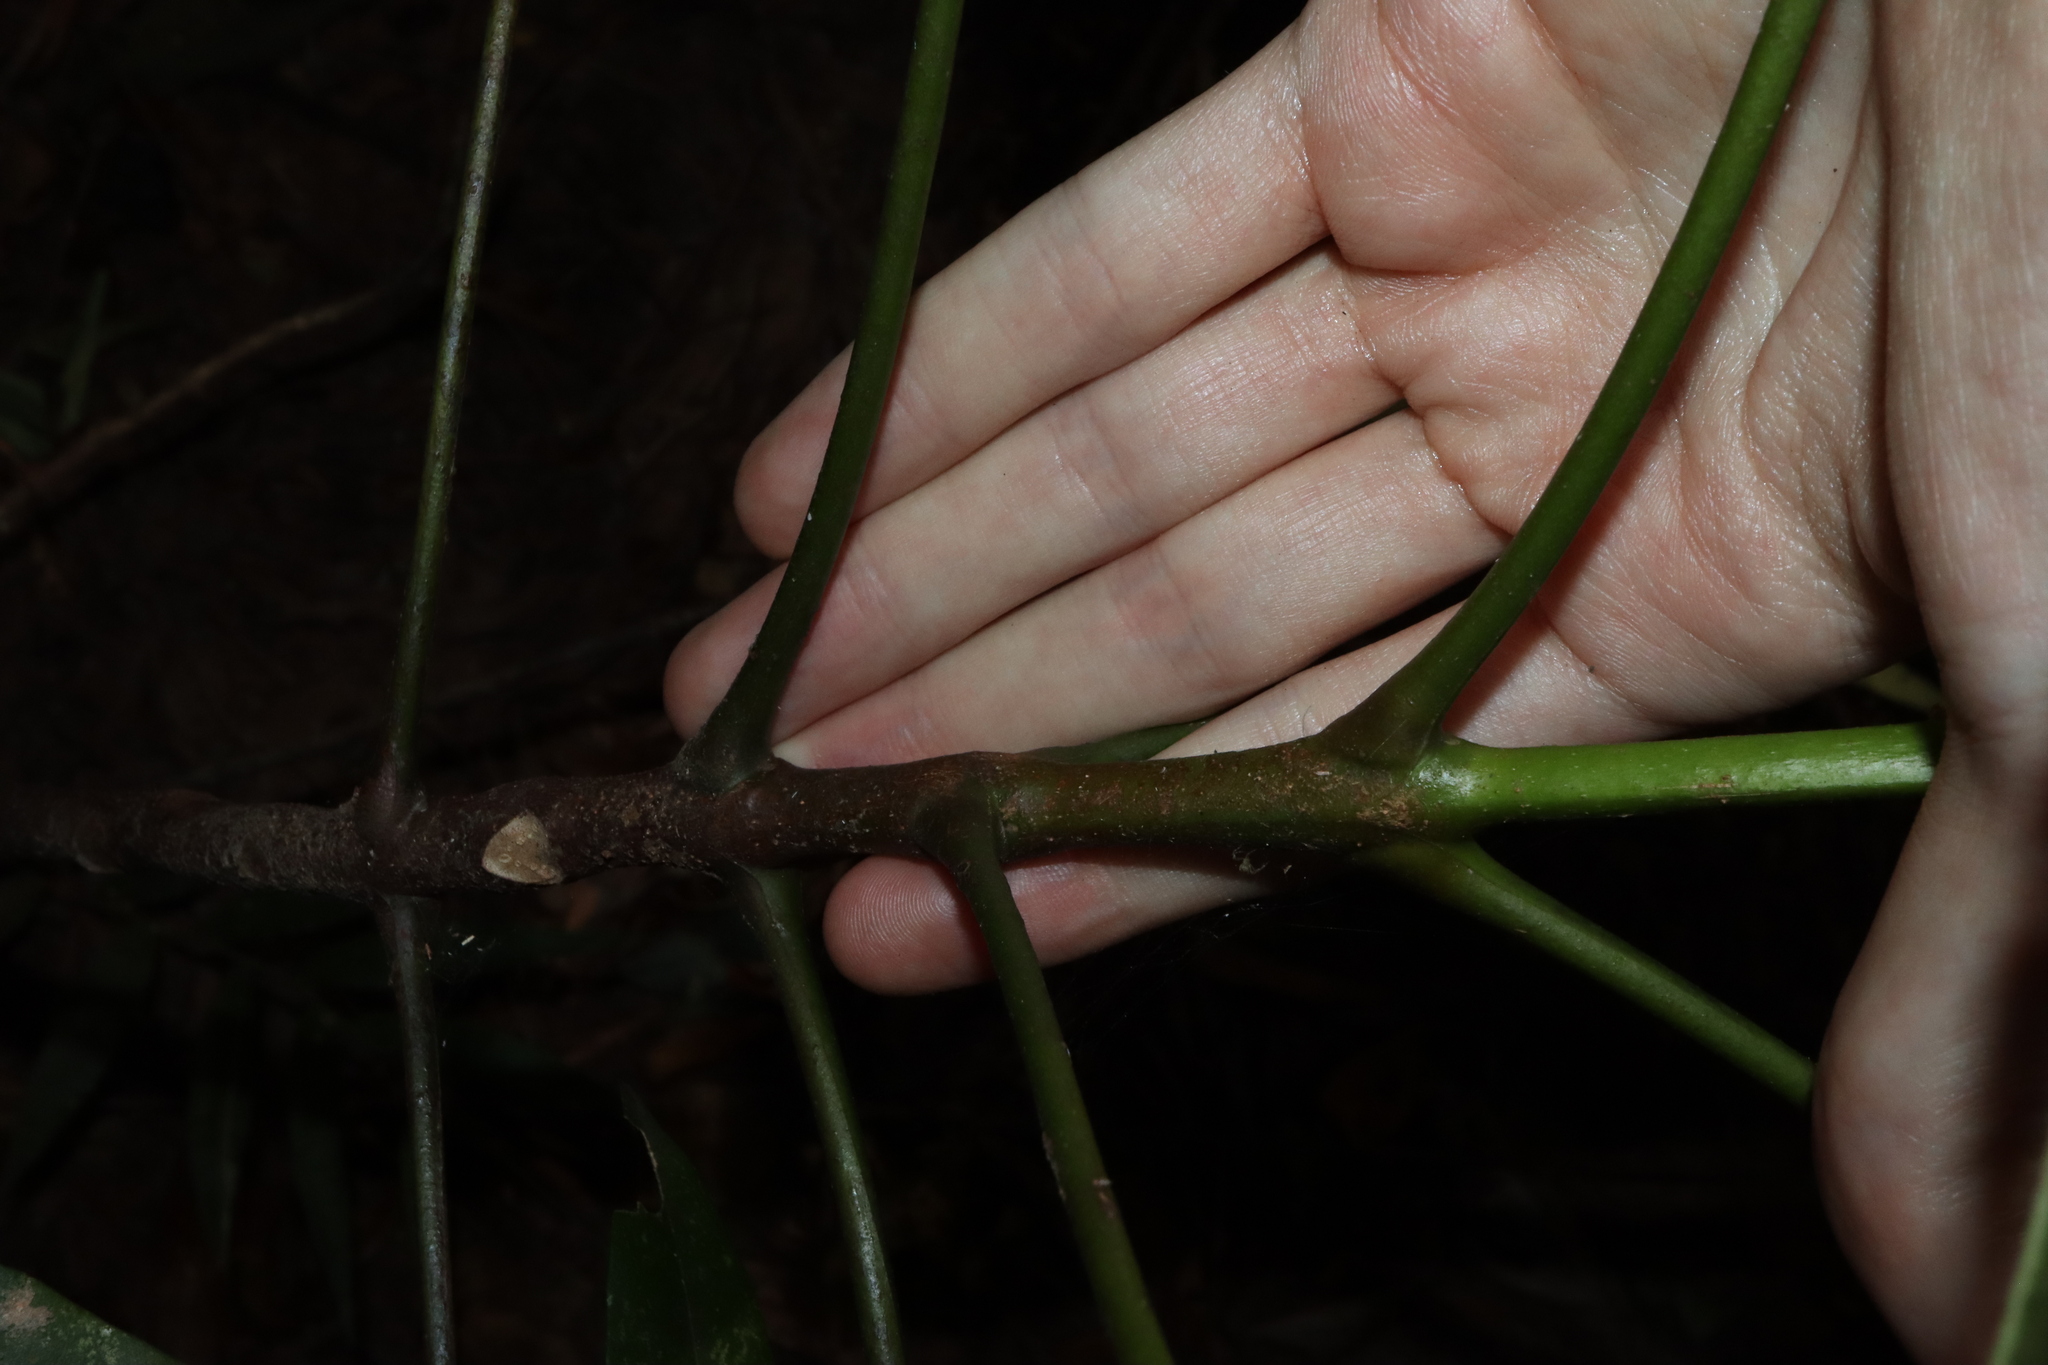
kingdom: Plantae
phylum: Tracheophyta
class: Magnoliopsida
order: Sapindales
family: Rutaceae
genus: Flindersia
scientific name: Flindersia ifflana
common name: Cairns hickory
